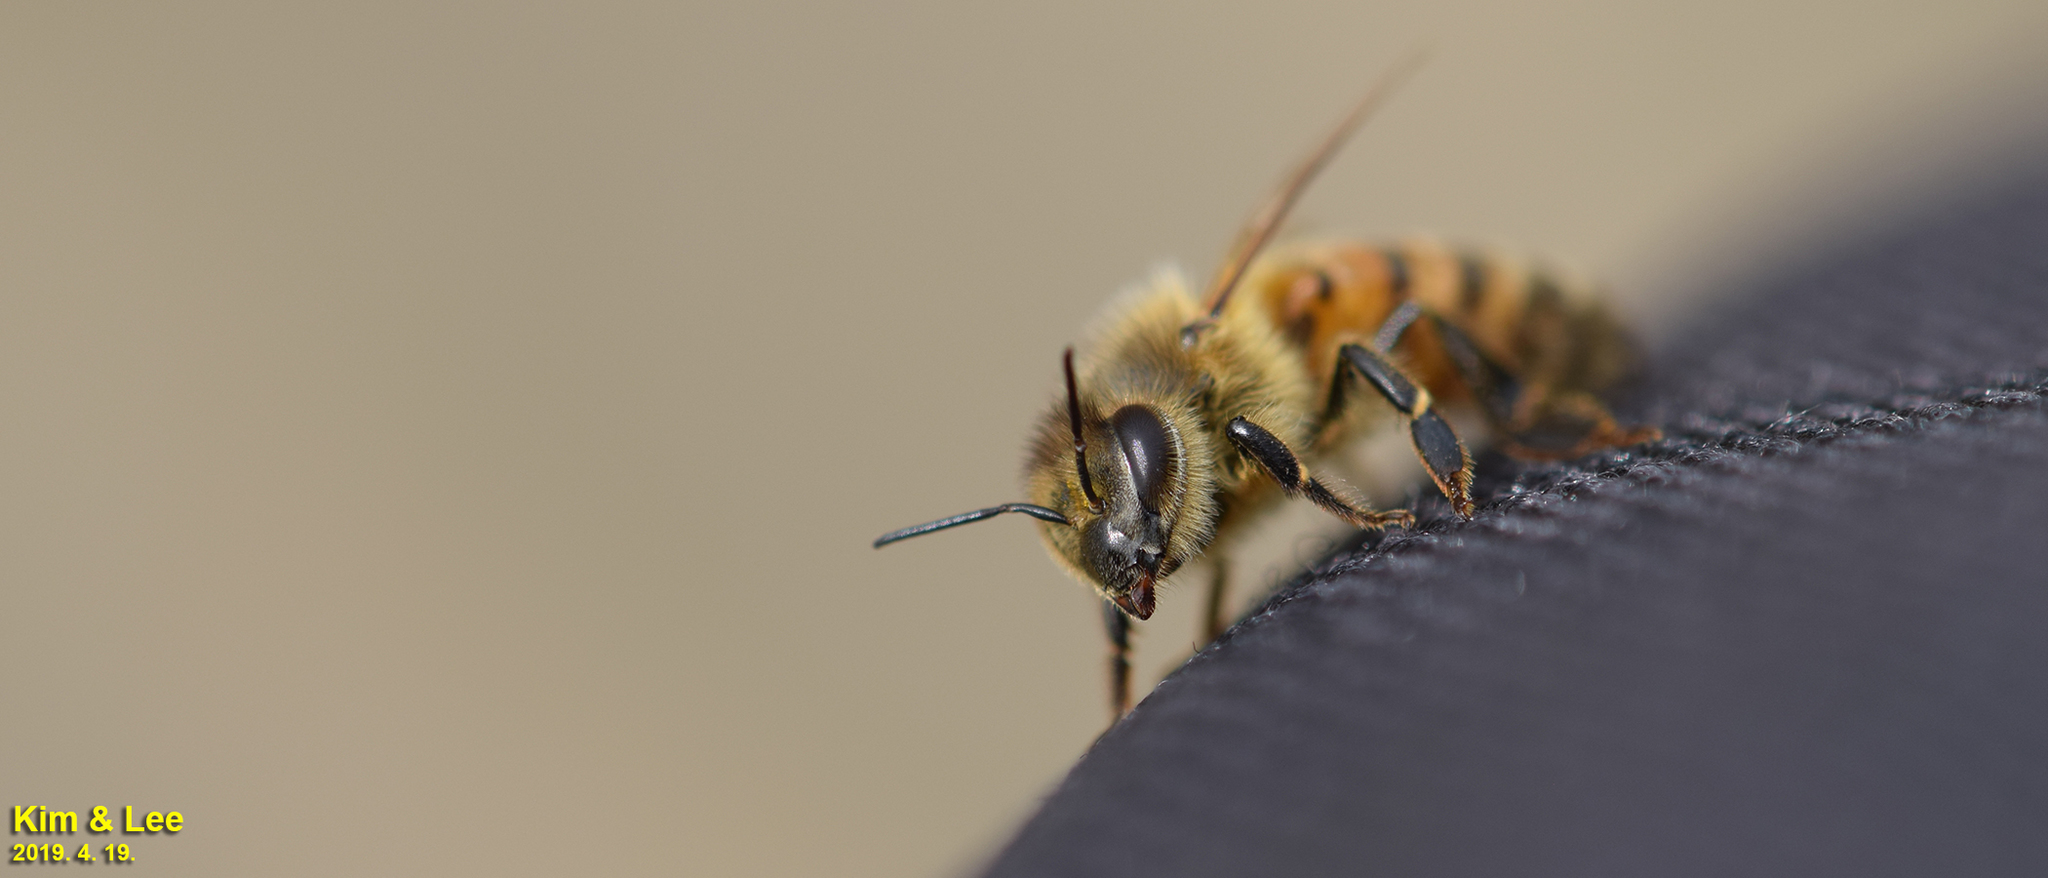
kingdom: Animalia
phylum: Arthropoda
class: Insecta
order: Hymenoptera
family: Apidae
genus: Apis
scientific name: Apis mellifera
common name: Honey bee
